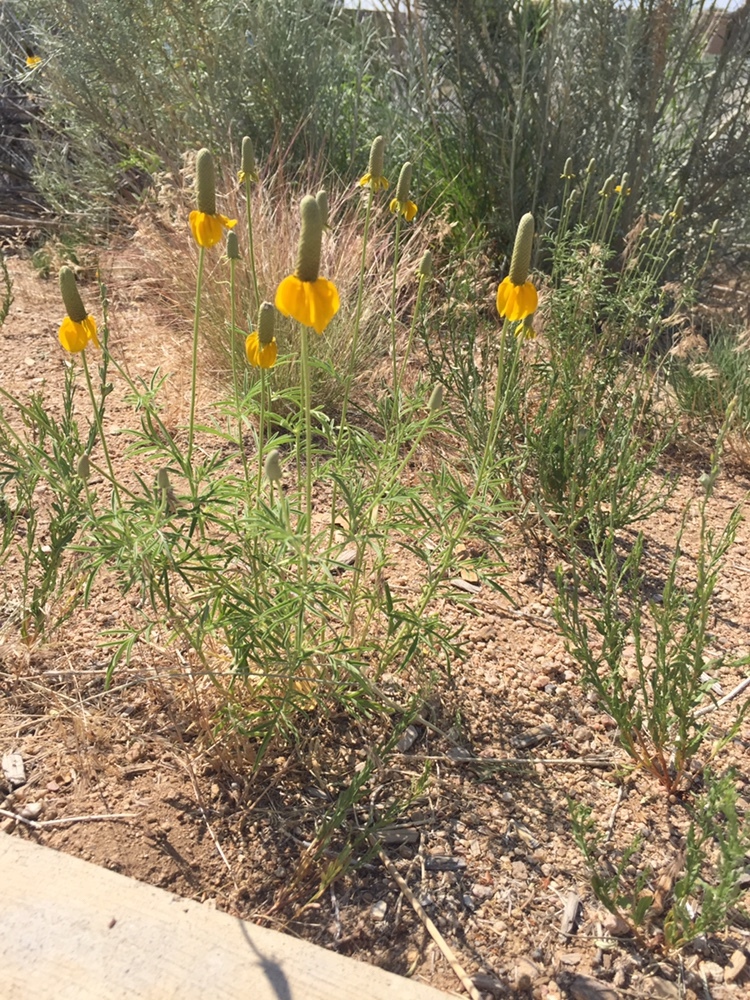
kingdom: Plantae
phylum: Tracheophyta
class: Magnoliopsida
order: Asterales
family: Asteraceae
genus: Ratibida
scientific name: Ratibida columnifera
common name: Prairie coneflower
